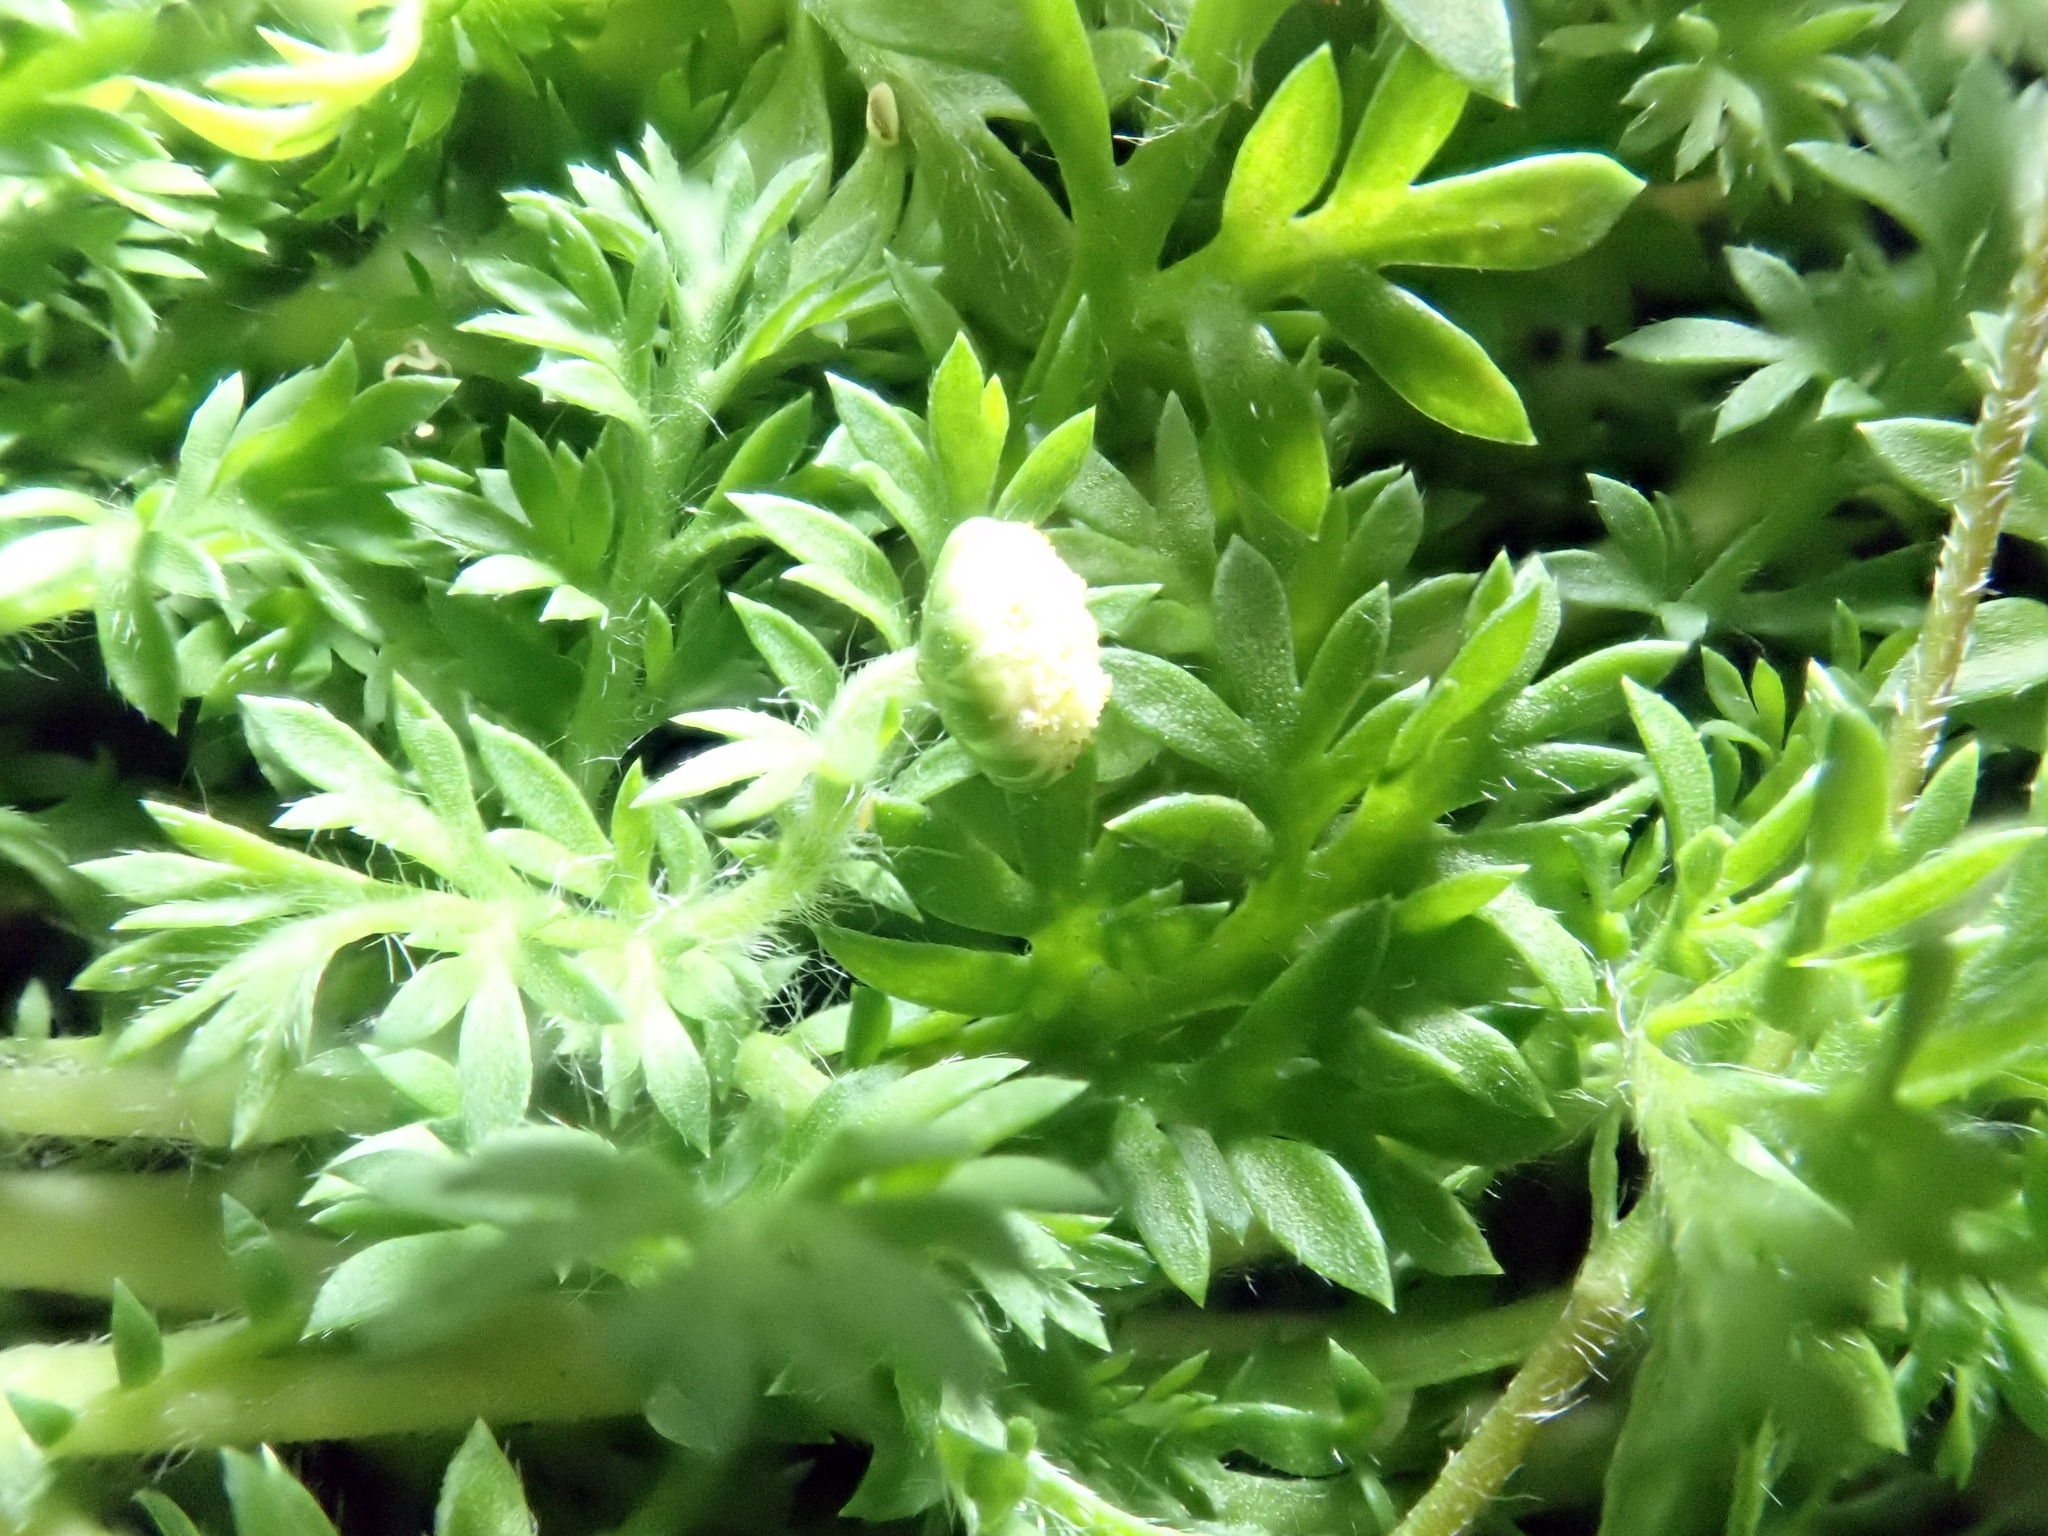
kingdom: Plantae
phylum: Tracheophyta
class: Magnoliopsida
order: Asterales
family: Asteraceae
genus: Cotula
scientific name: Cotula australis
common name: Australian waterbuttons
